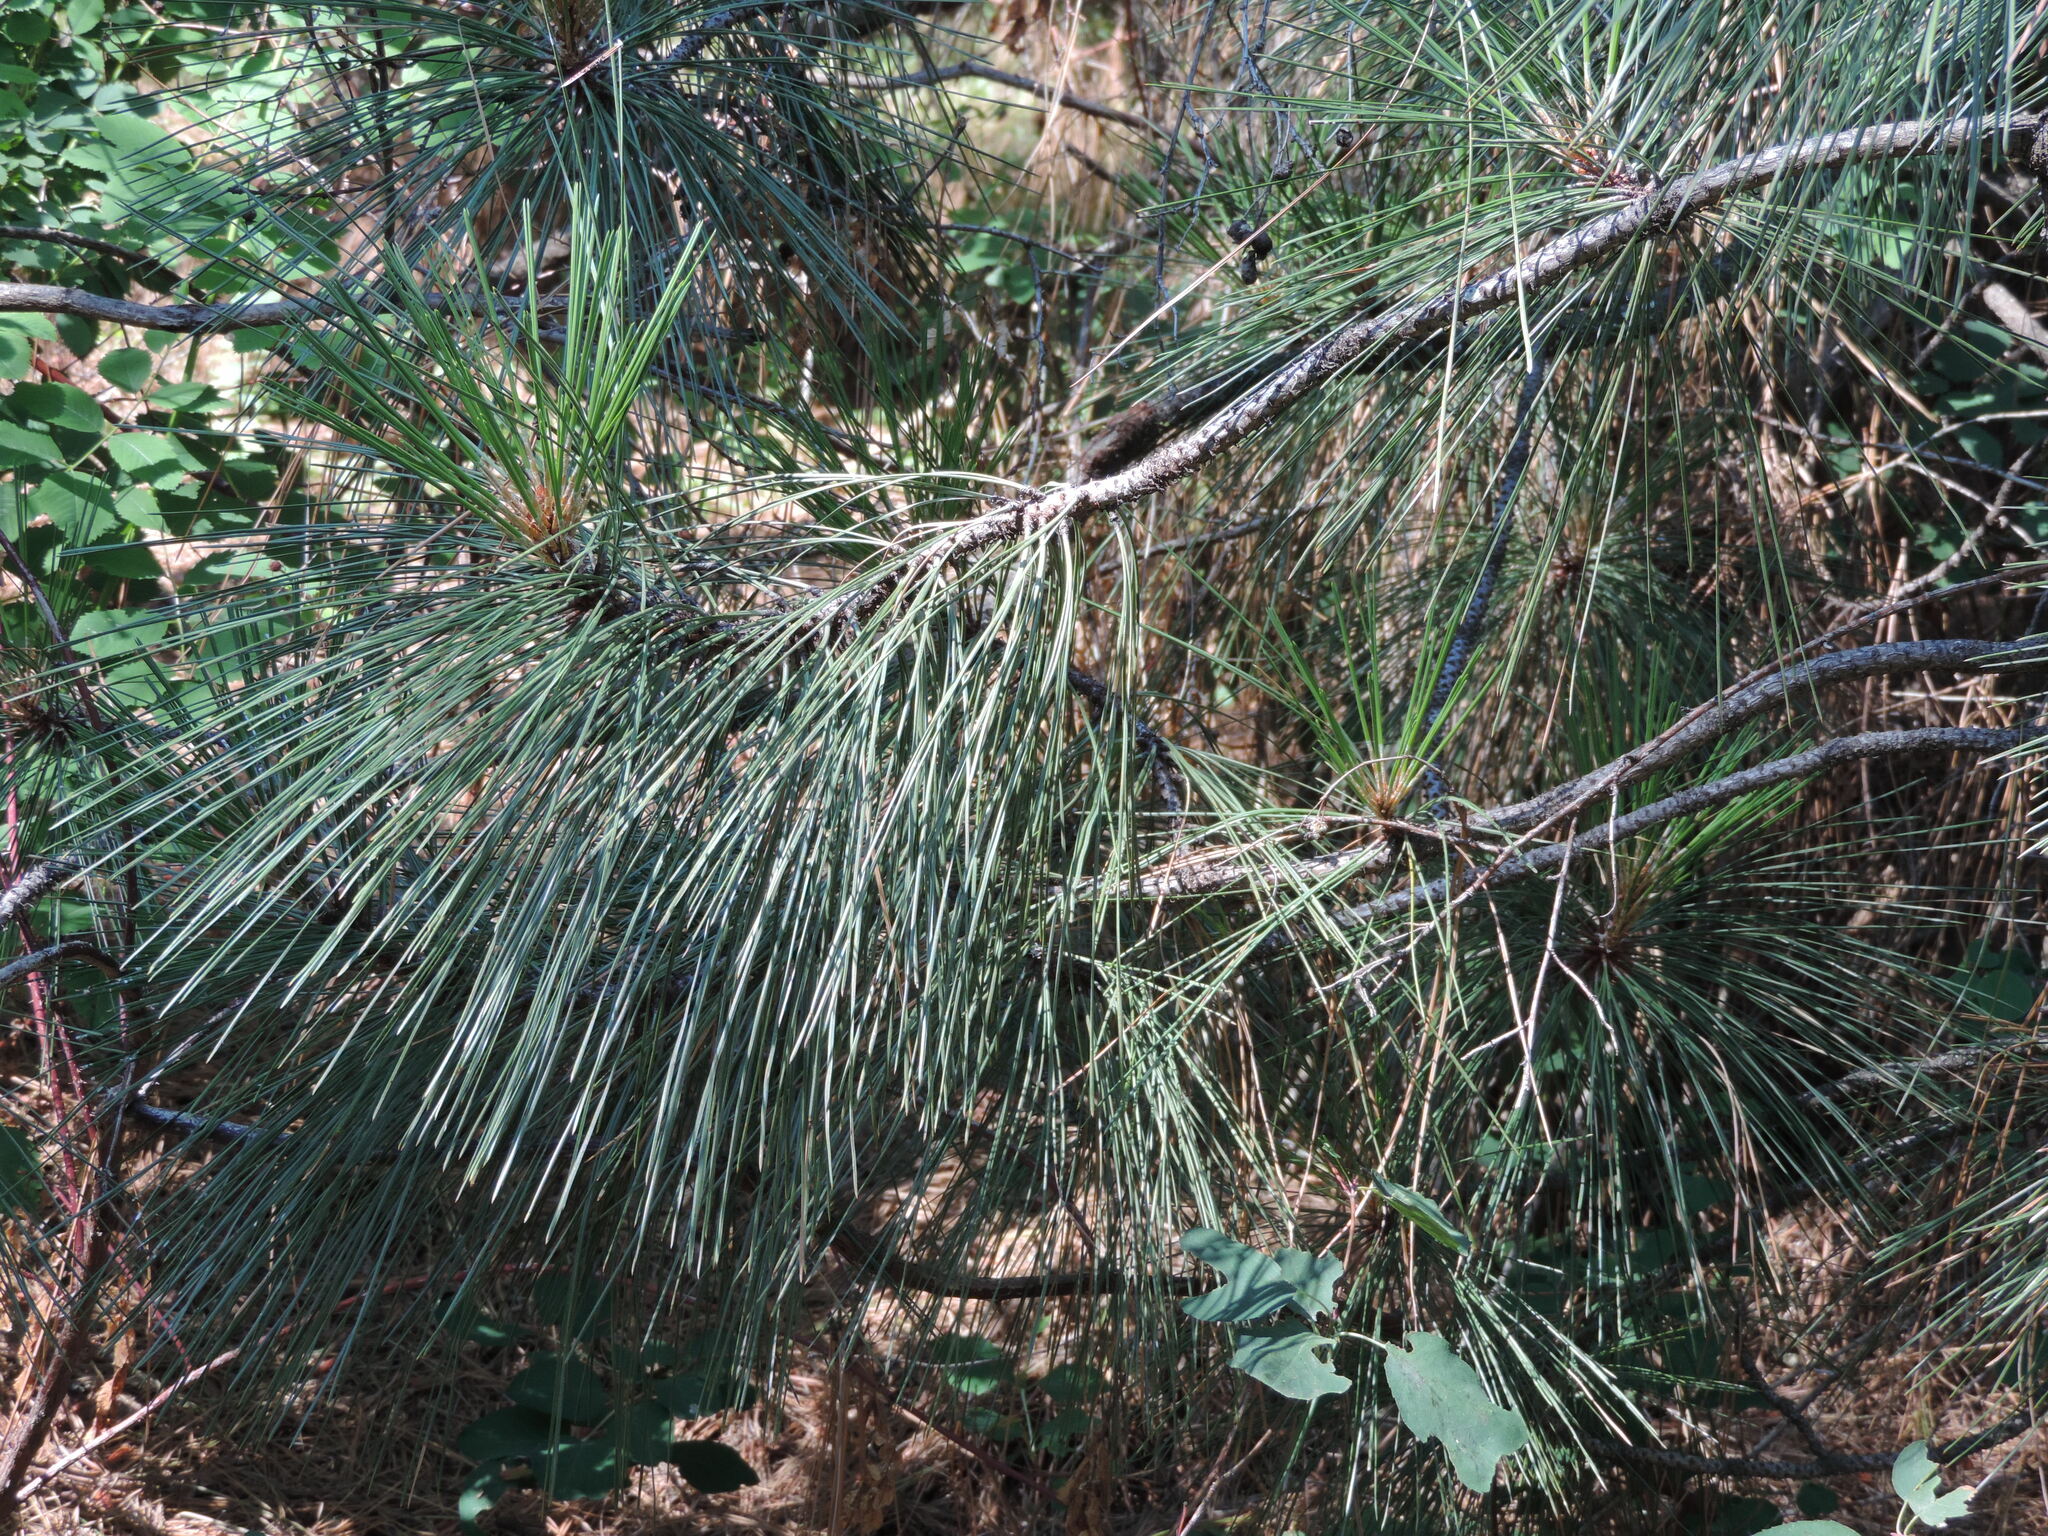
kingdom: Plantae
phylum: Tracheophyta
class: Pinopsida
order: Pinales
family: Pinaceae
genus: Pinus
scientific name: Pinus ponderosa
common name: Western yellow-pine
